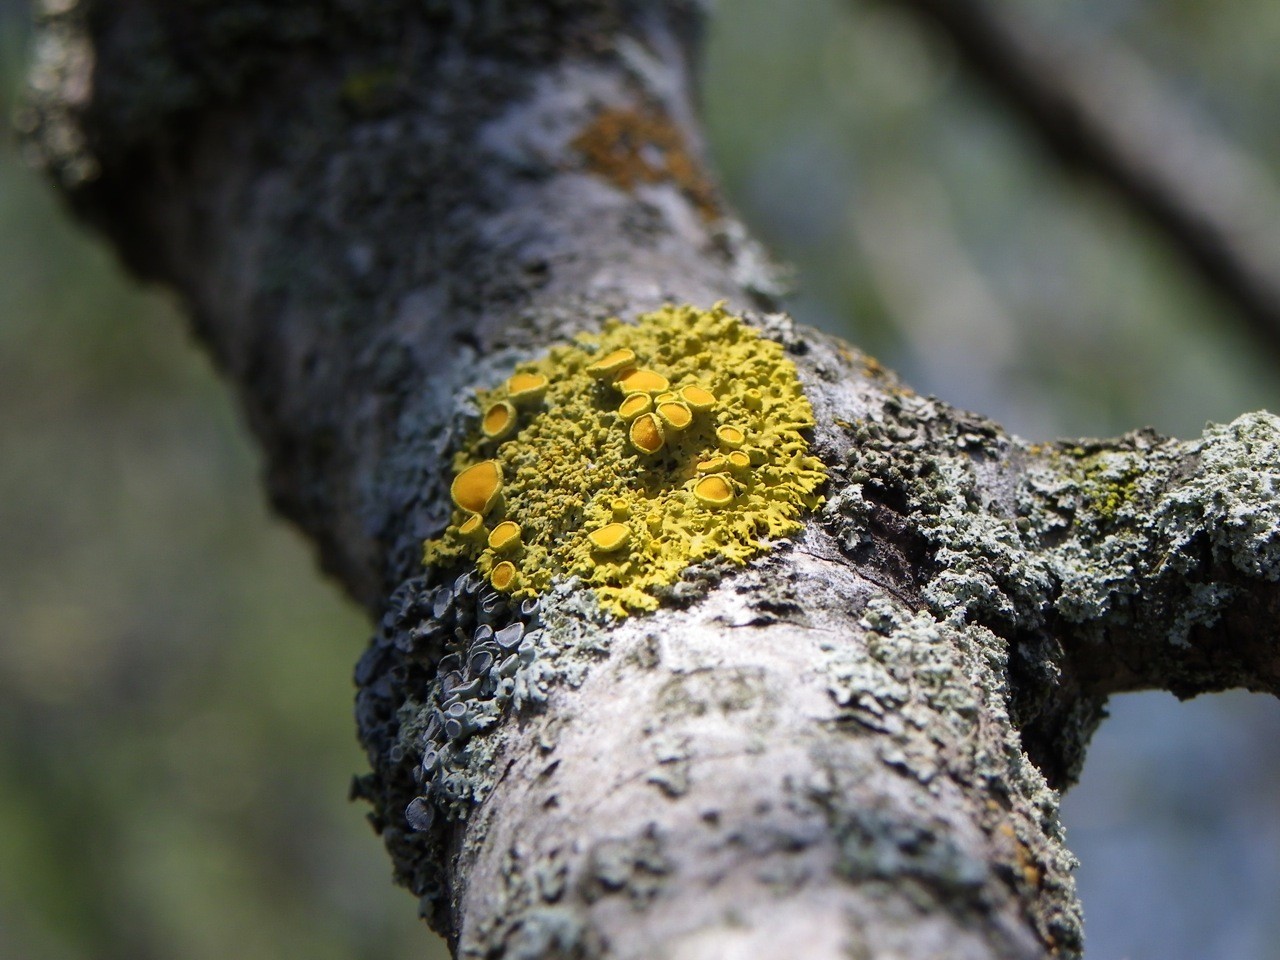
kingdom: Fungi
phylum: Ascomycota
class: Lecanoromycetes
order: Teloschistales
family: Teloschistaceae
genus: Gallowayella
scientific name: Gallowayella hasseana
